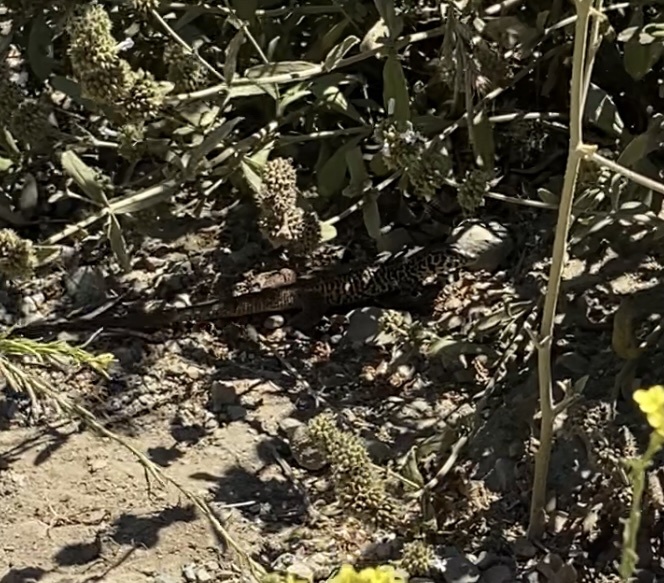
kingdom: Animalia
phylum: Chordata
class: Squamata
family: Teiidae
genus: Aspidoscelis
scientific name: Aspidoscelis tigris
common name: Tiger whiptail
